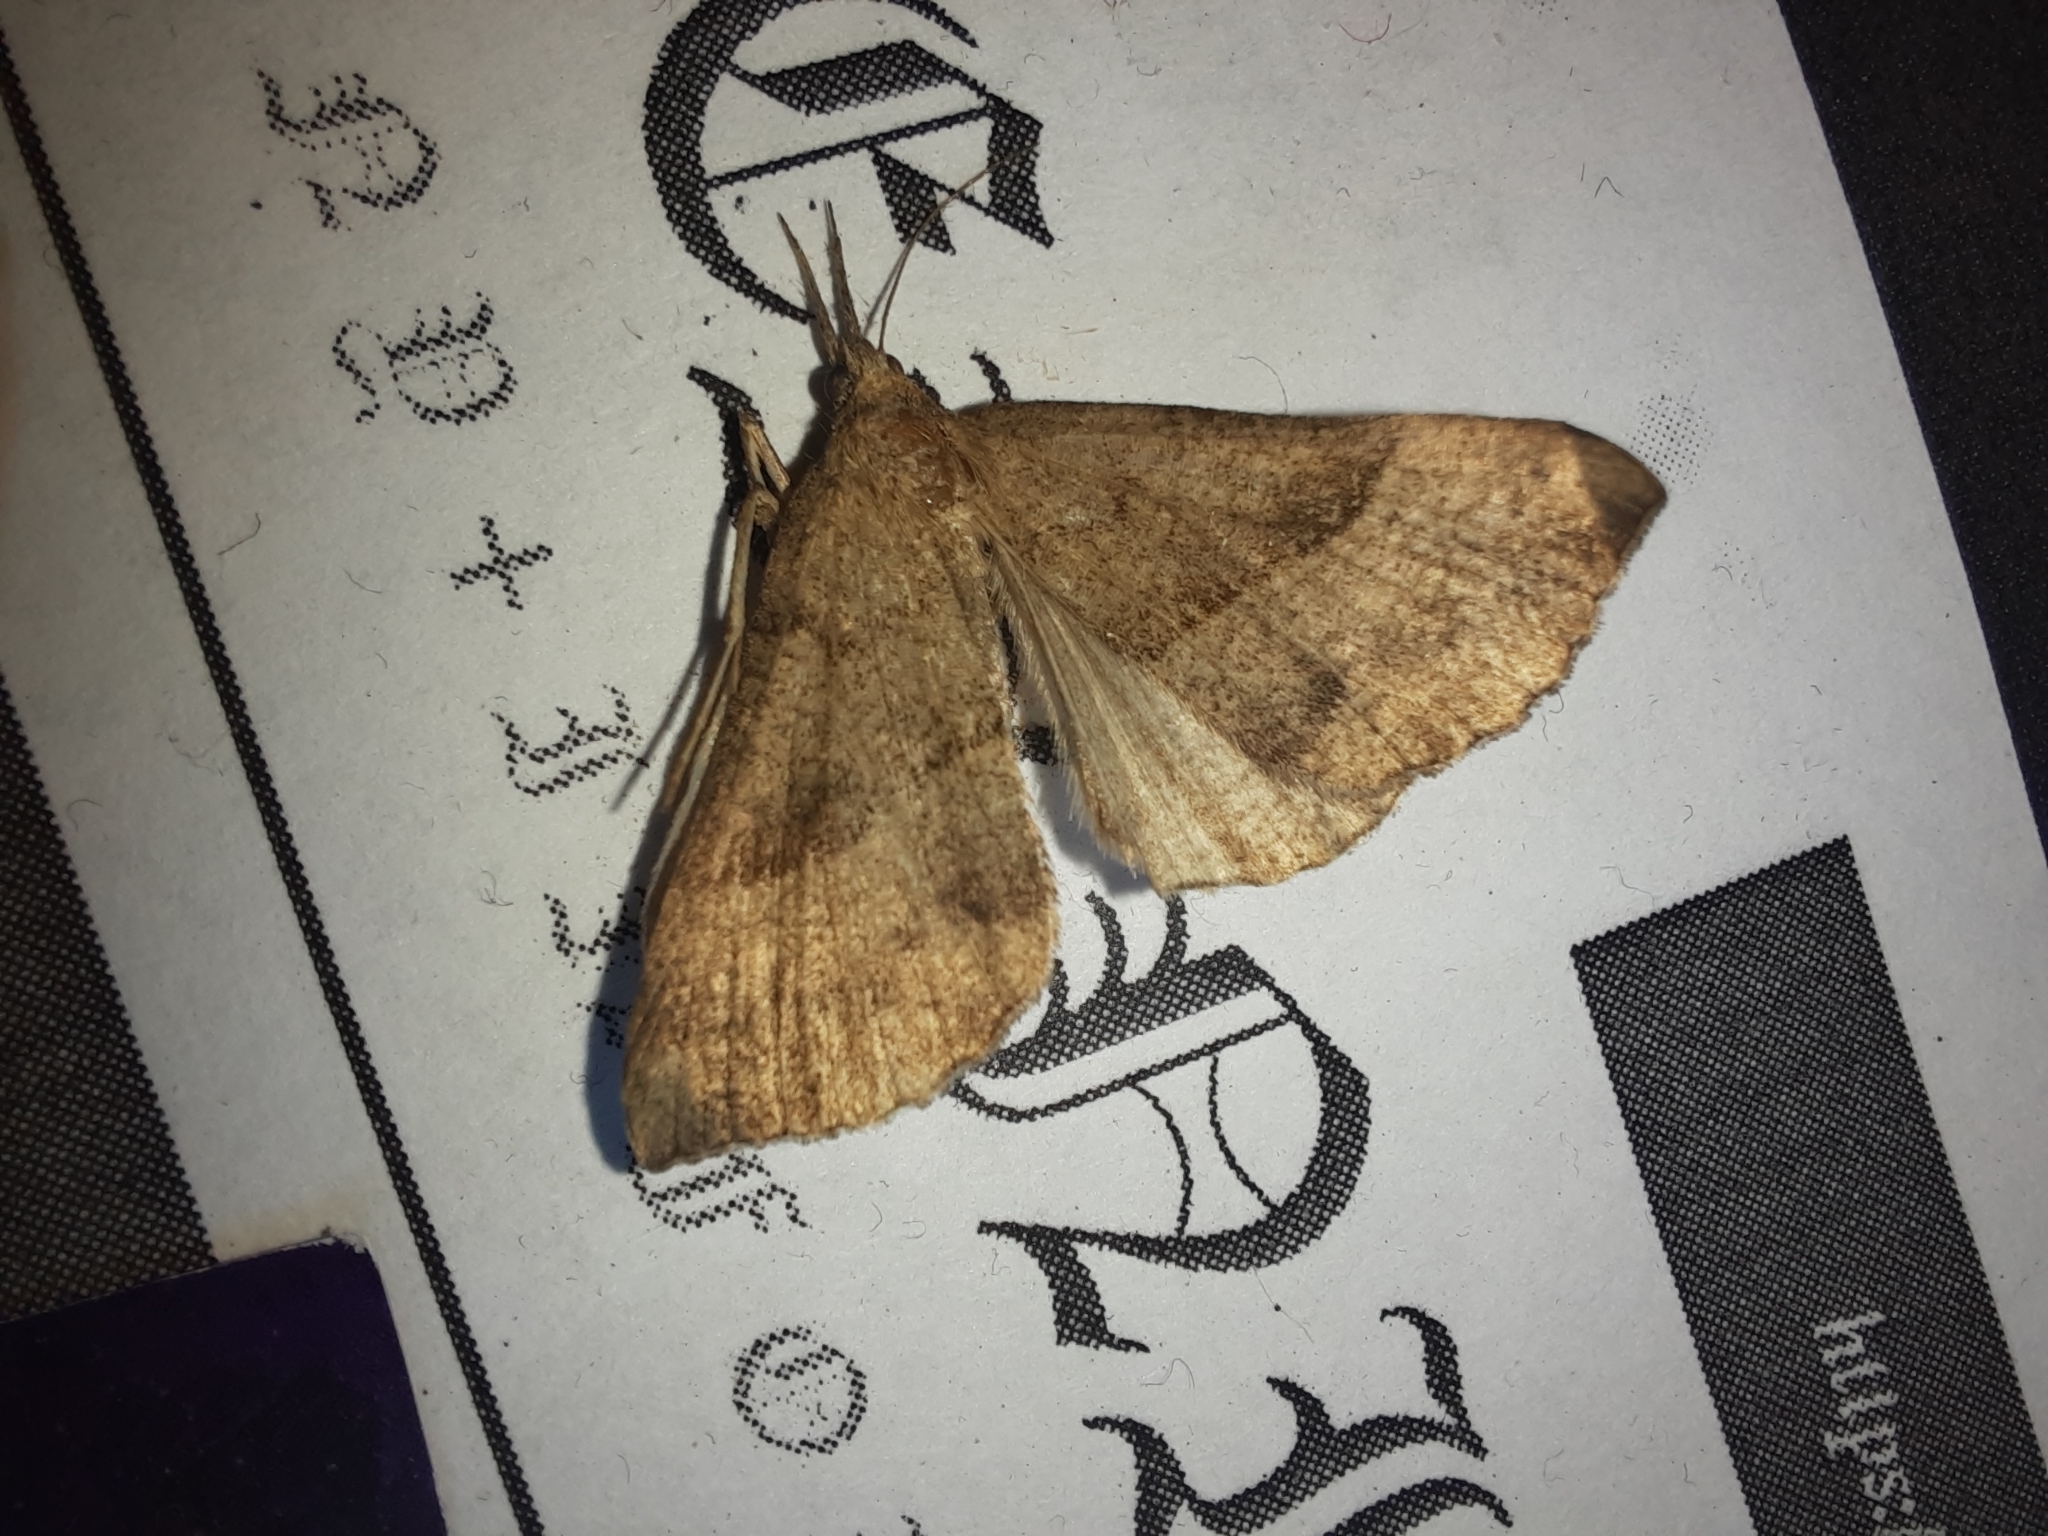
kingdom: Animalia
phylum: Arthropoda
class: Insecta
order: Lepidoptera
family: Erebidae
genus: Hypena
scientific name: Hypena proboscidalis
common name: Snout
